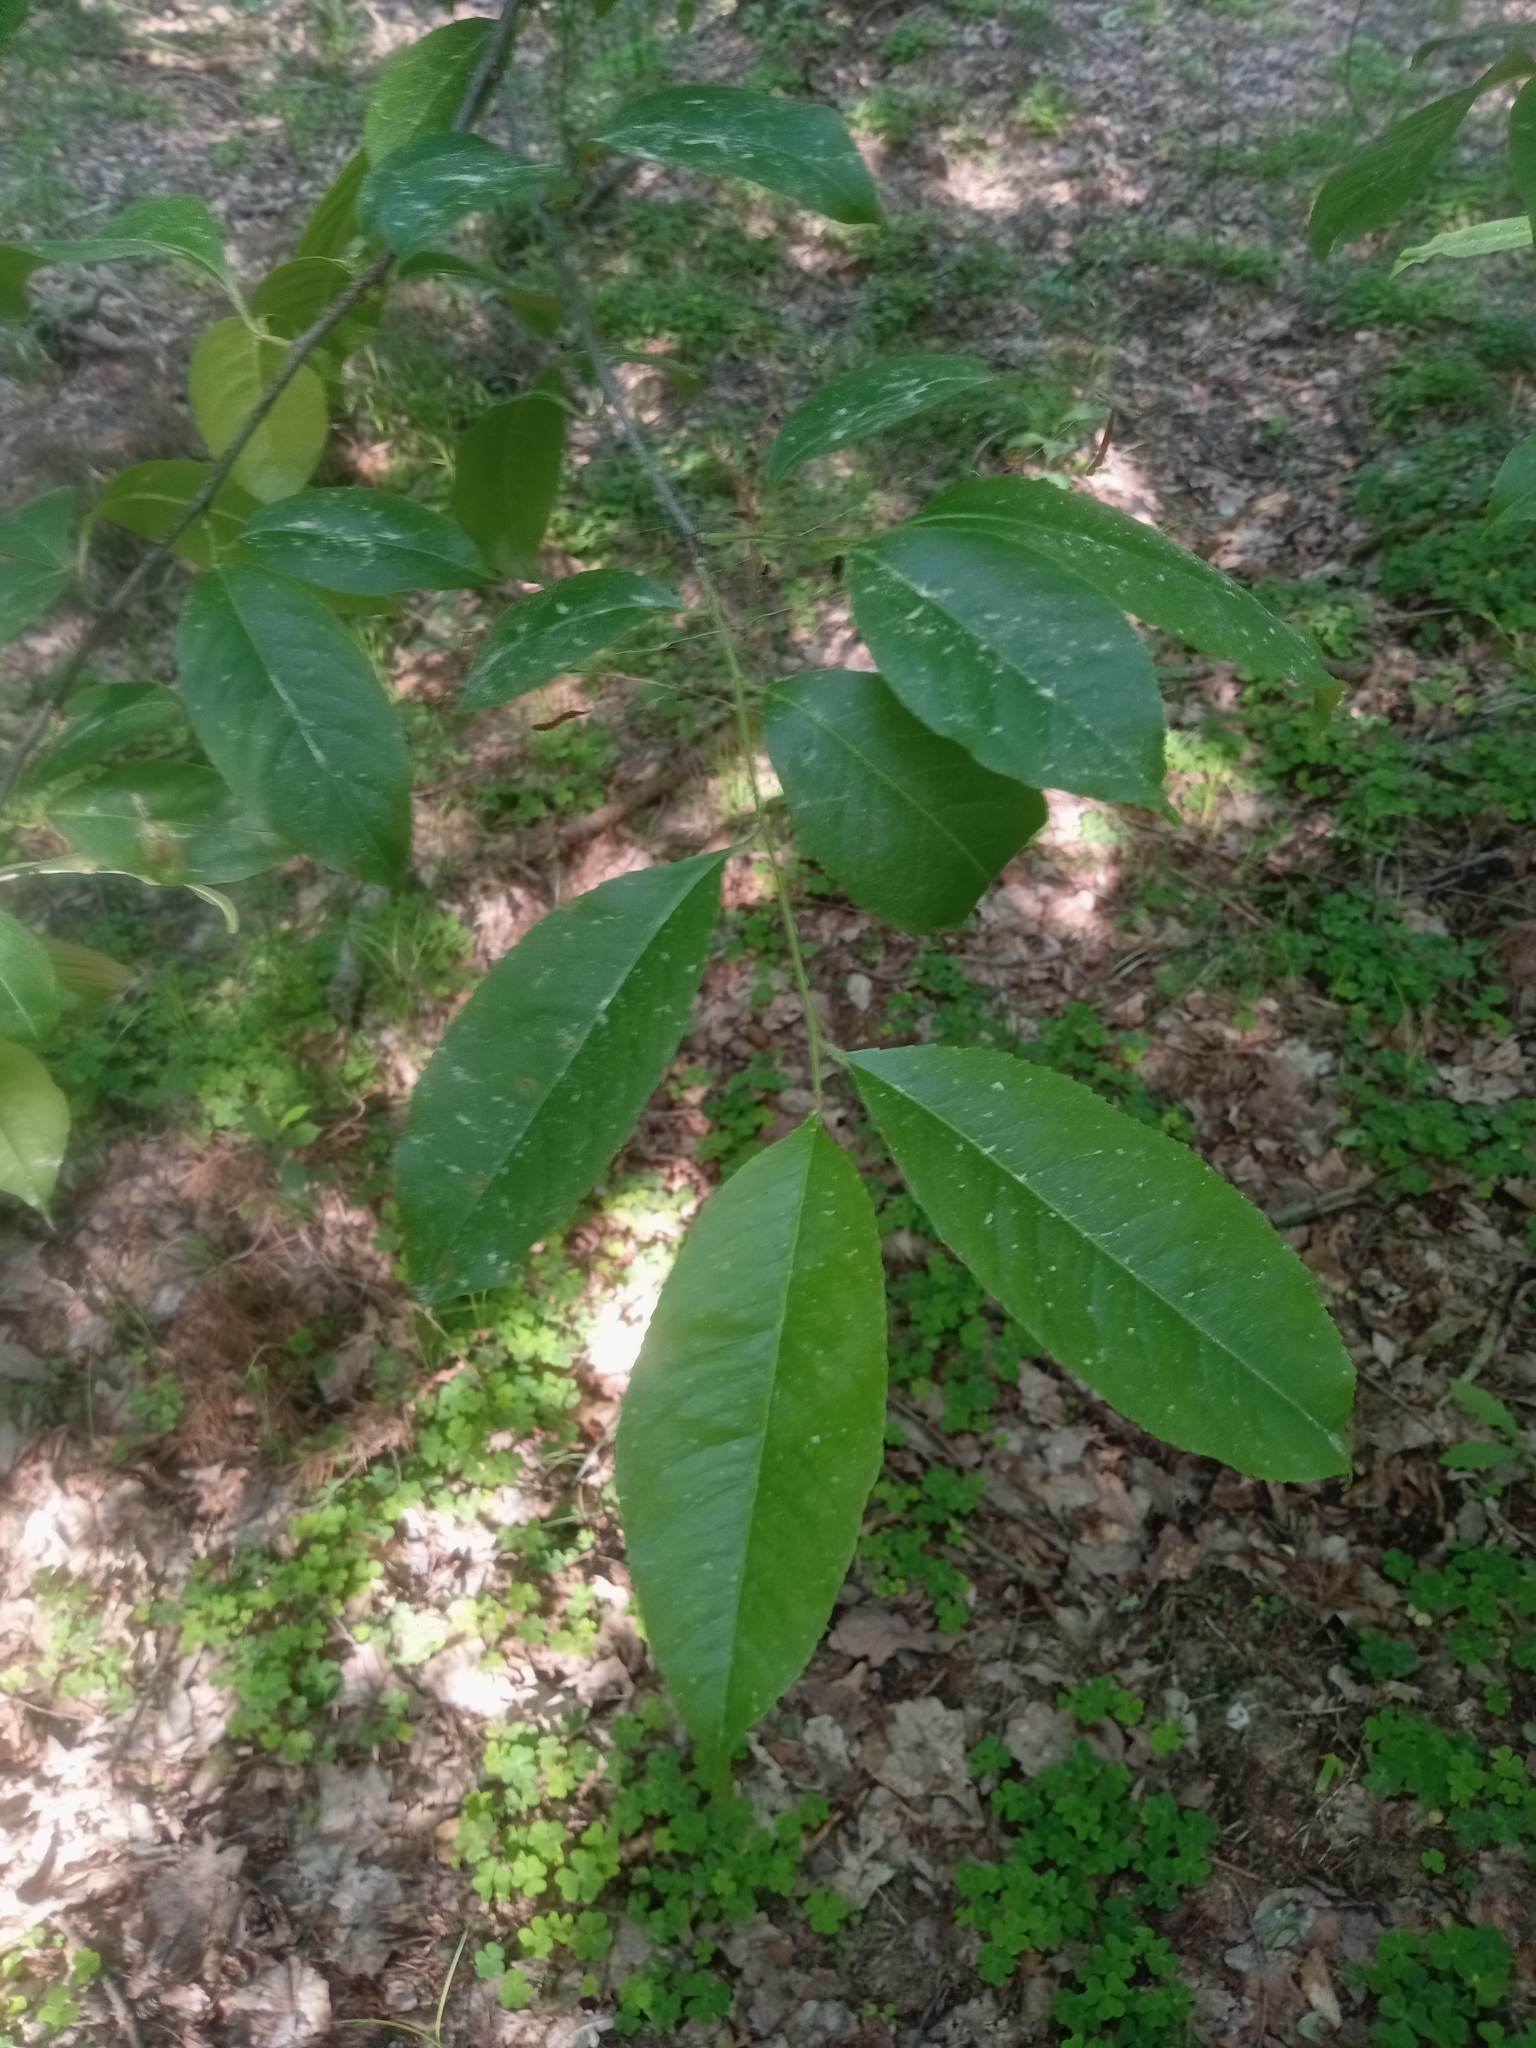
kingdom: Plantae
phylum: Tracheophyta
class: Magnoliopsida
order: Rosales
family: Rosaceae
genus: Prunus
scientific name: Prunus serotina
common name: Black cherry
